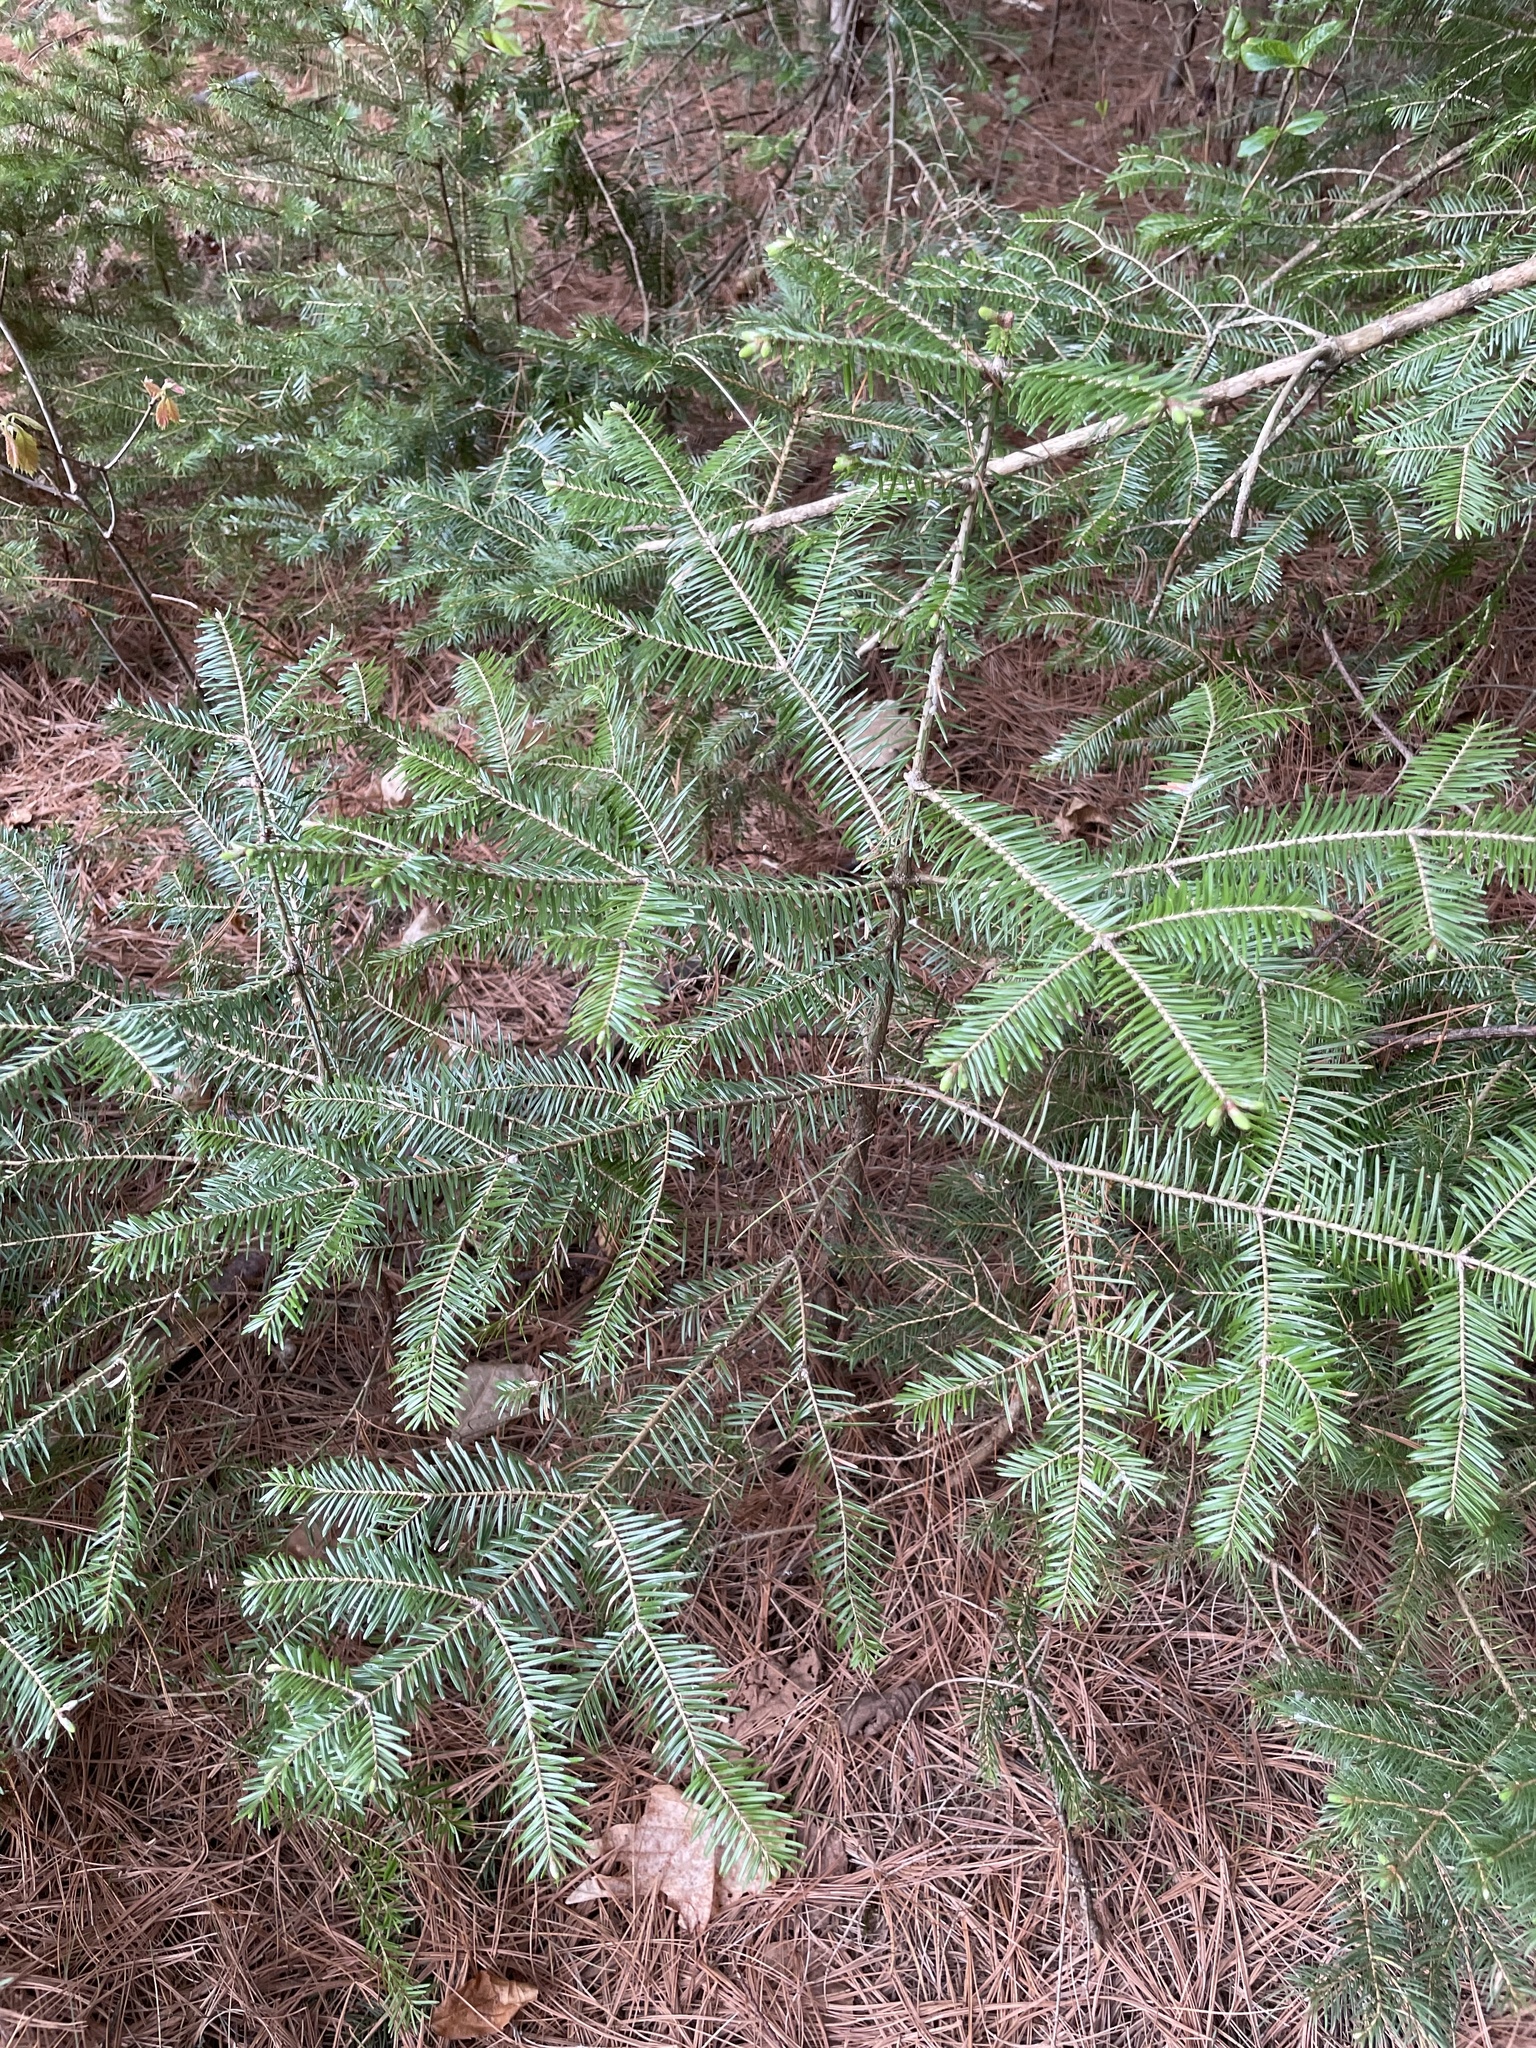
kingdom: Plantae
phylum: Tracheophyta
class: Pinopsida
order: Pinales
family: Pinaceae
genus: Abies
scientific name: Abies balsamea
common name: Balsam fir
